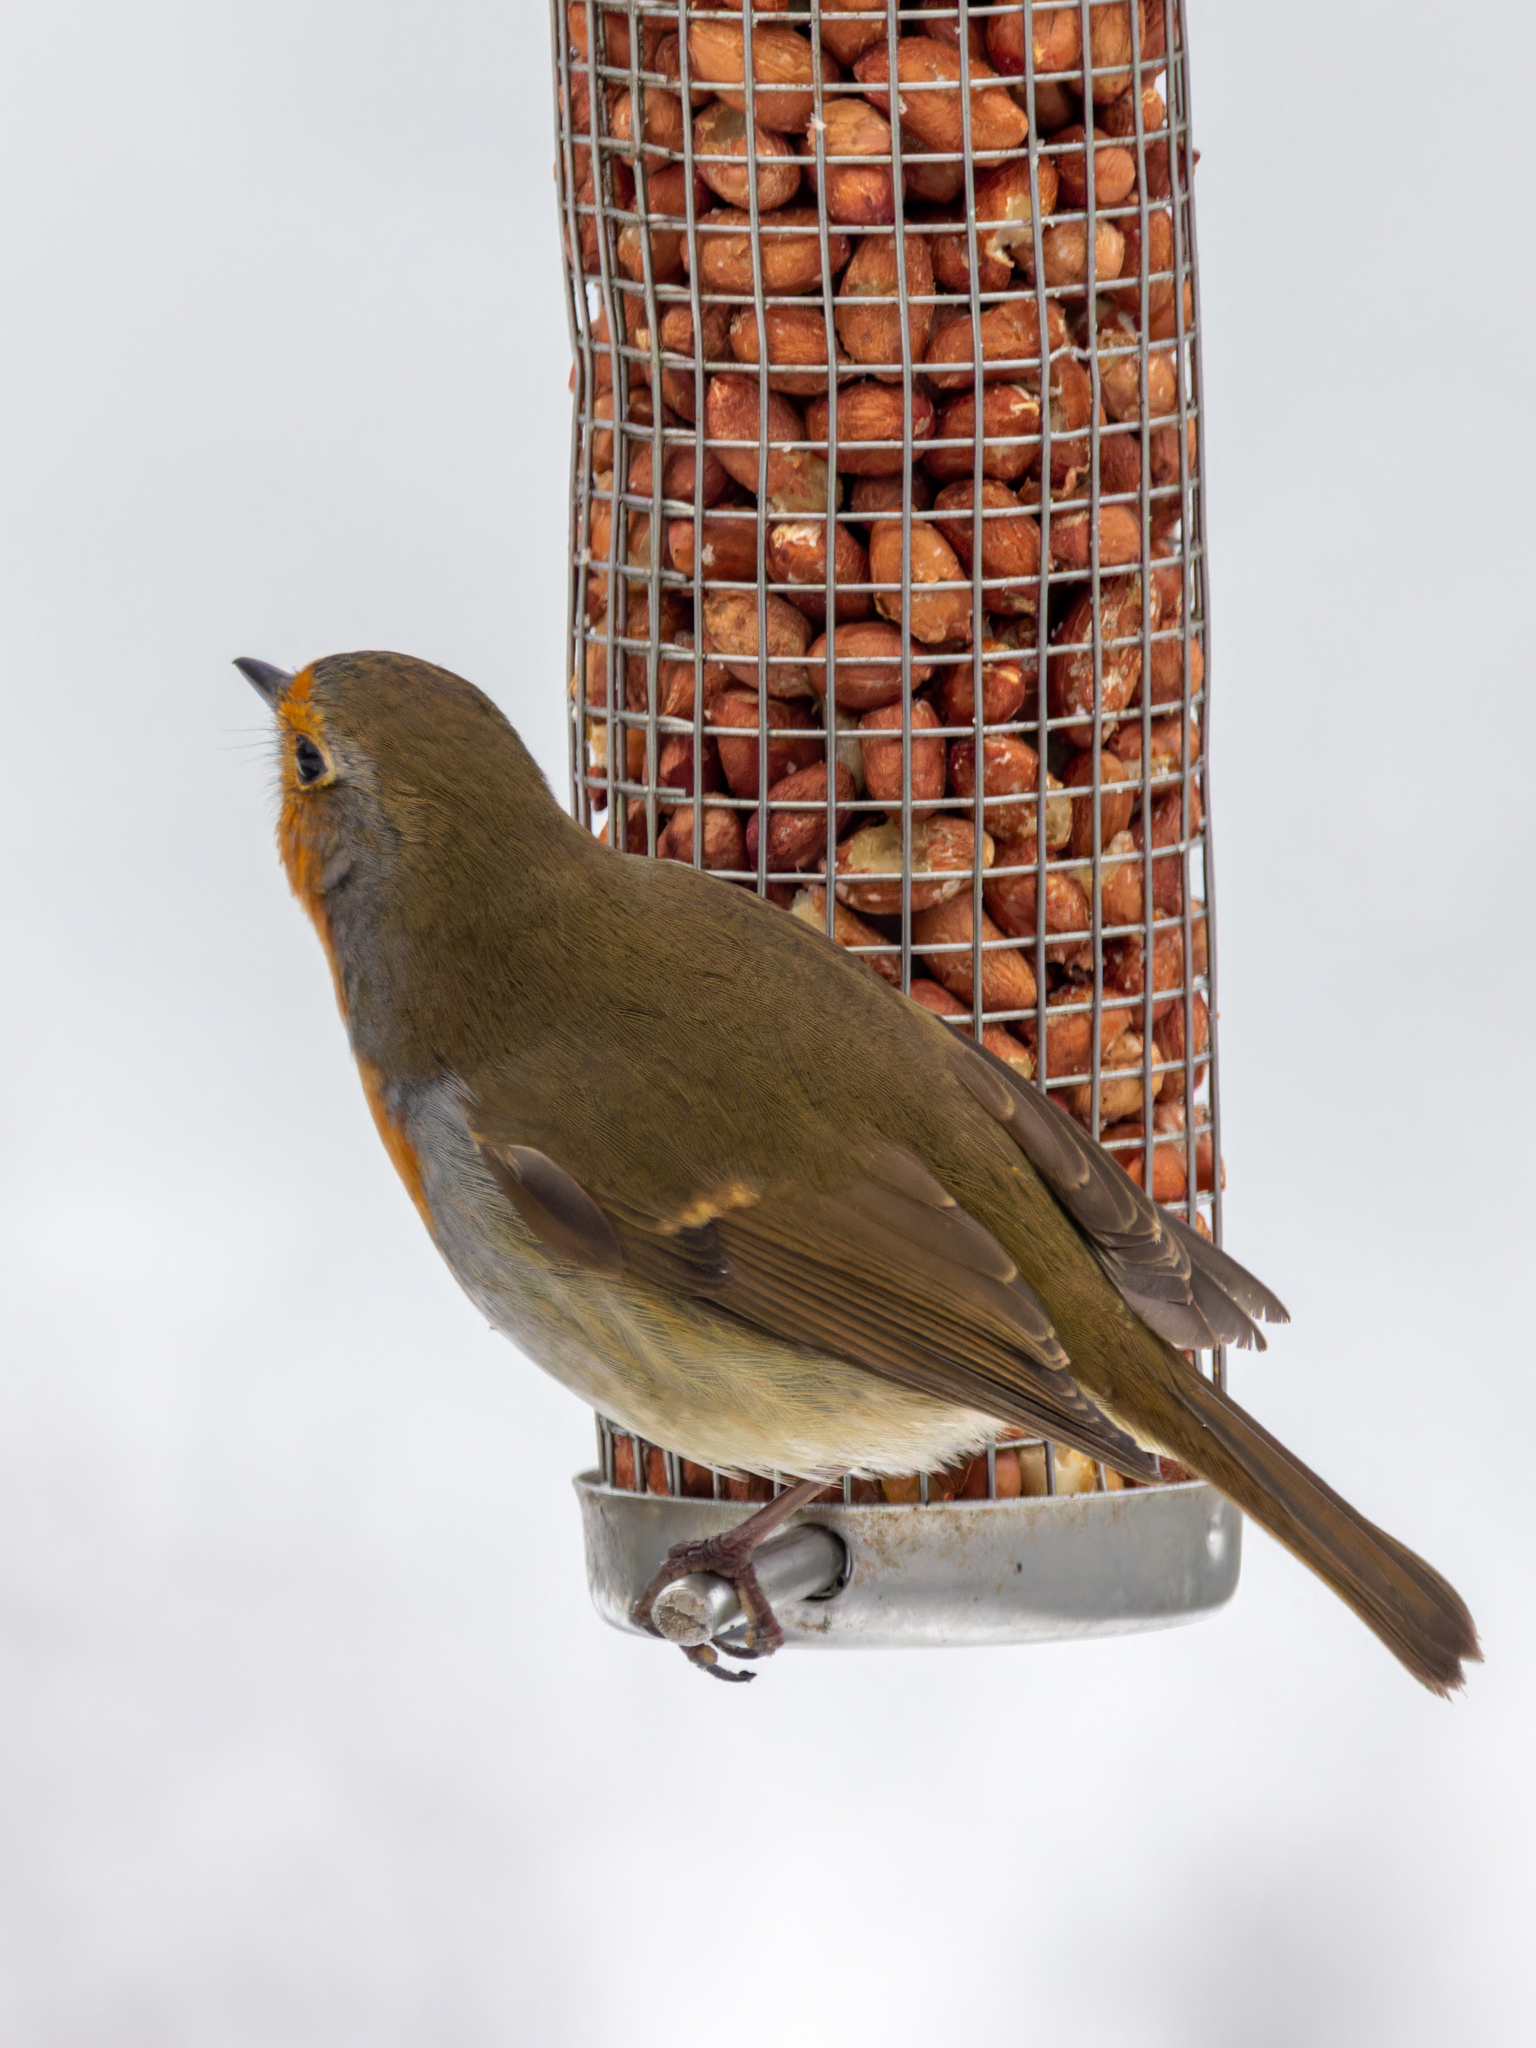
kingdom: Animalia
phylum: Chordata
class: Aves
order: Passeriformes
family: Muscicapidae
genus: Erithacus
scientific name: Erithacus rubecula
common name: European robin
